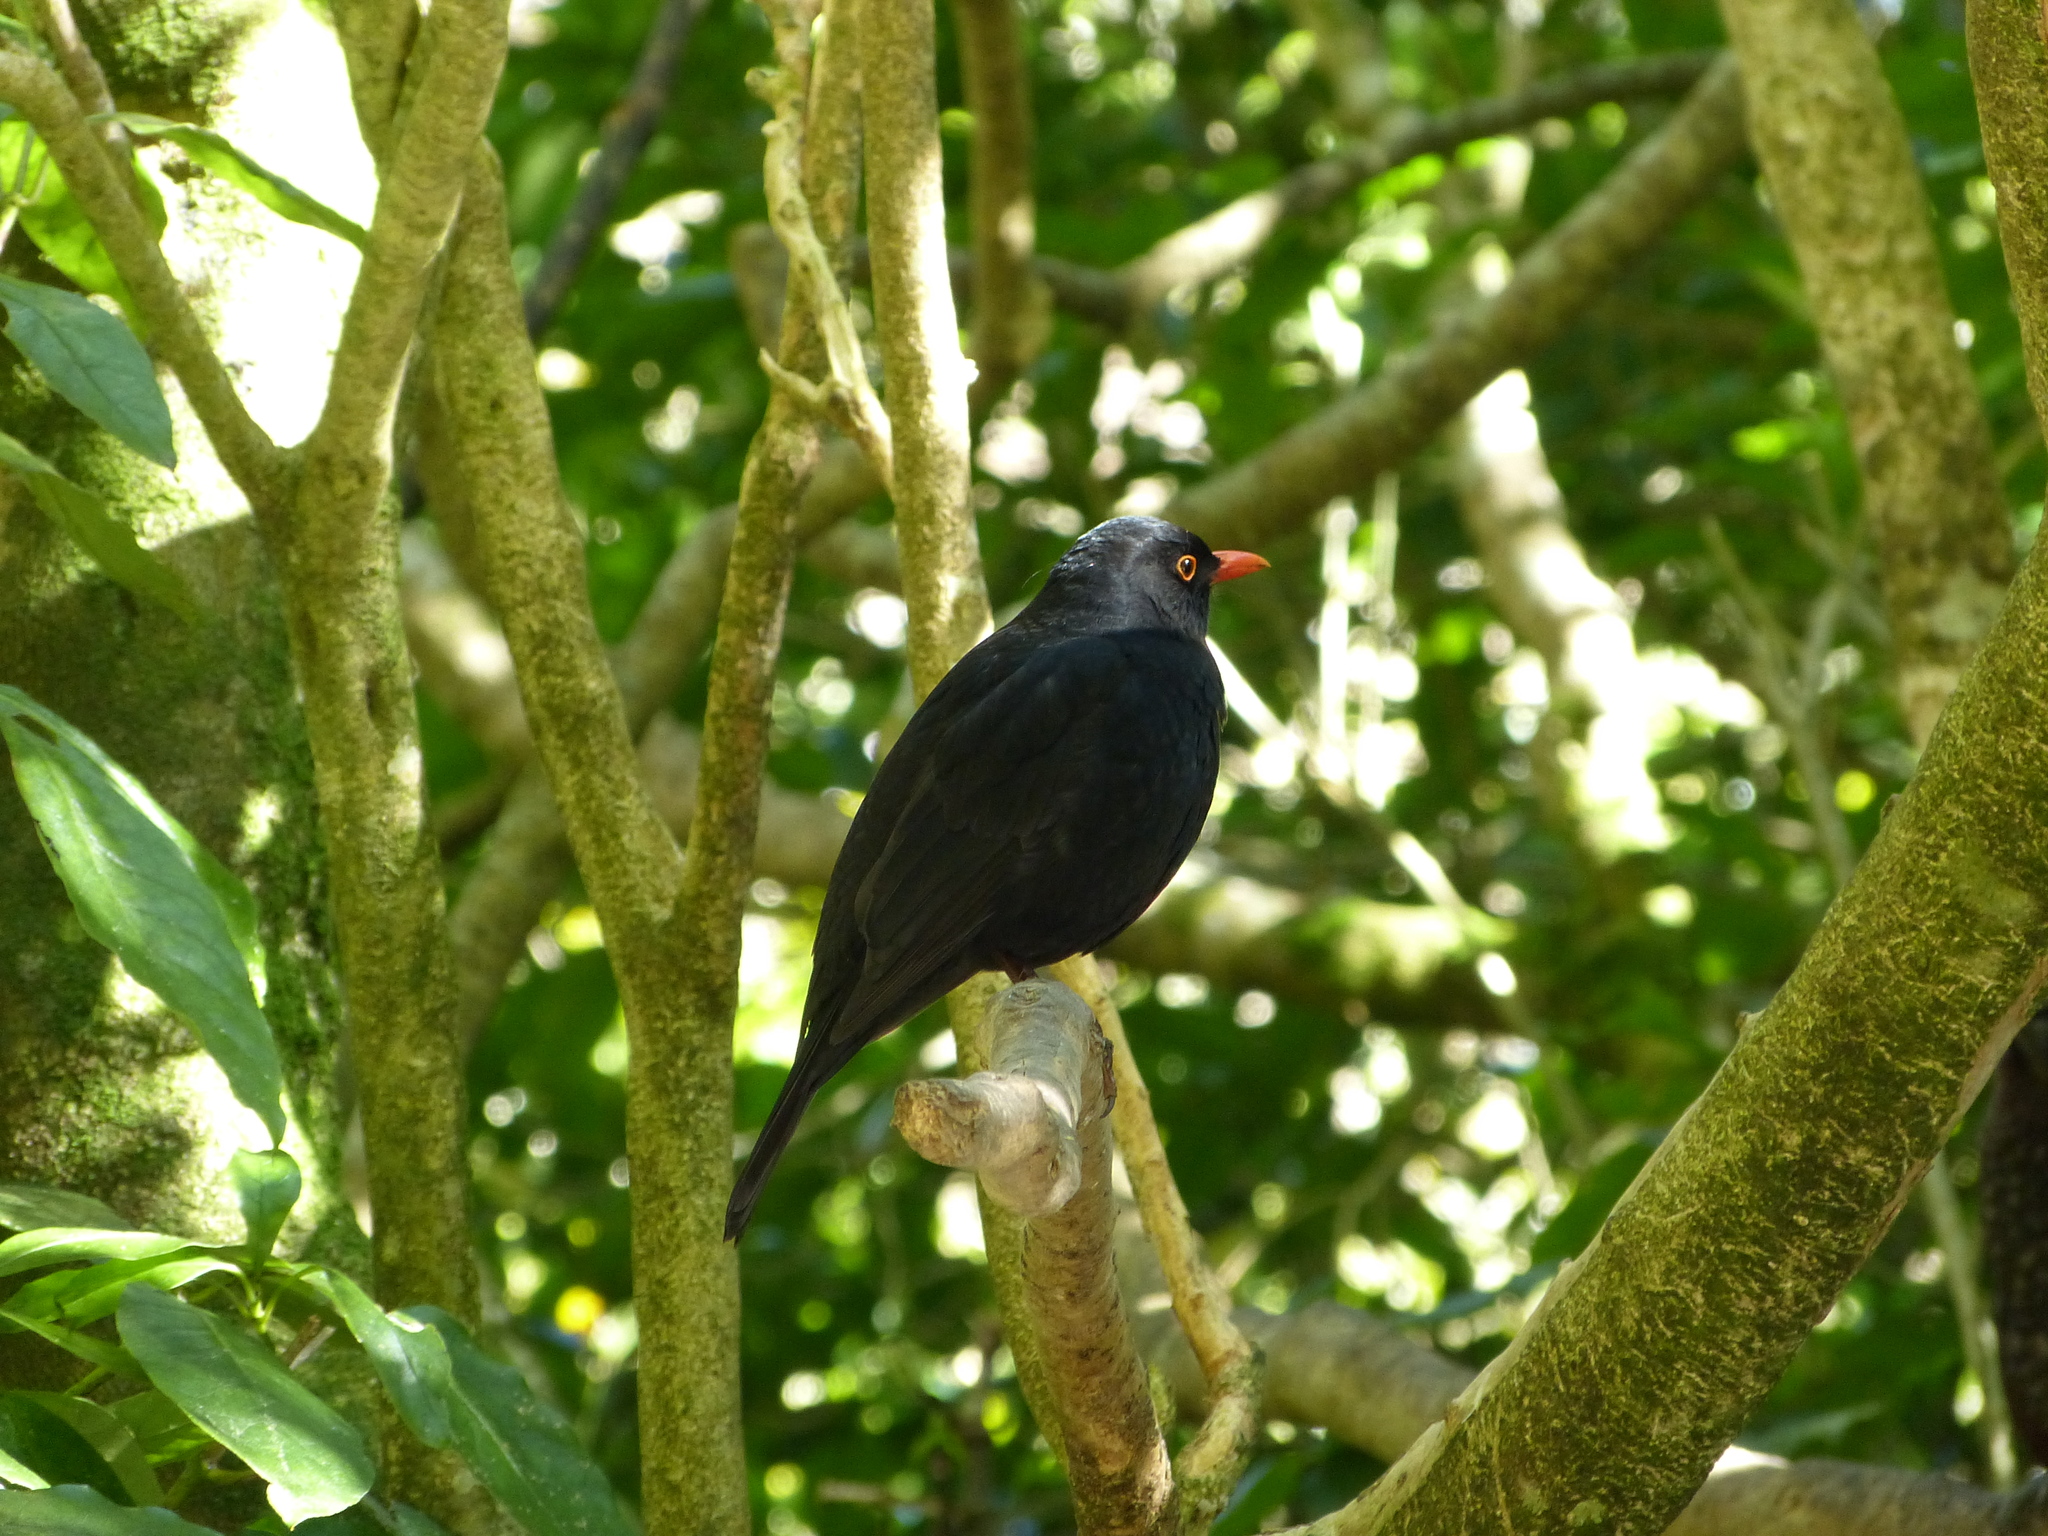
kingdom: Animalia
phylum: Chordata
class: Aves
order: Passeriformes
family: Turdidae
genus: Turdus
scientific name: Turdus merula
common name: Common blackbird
